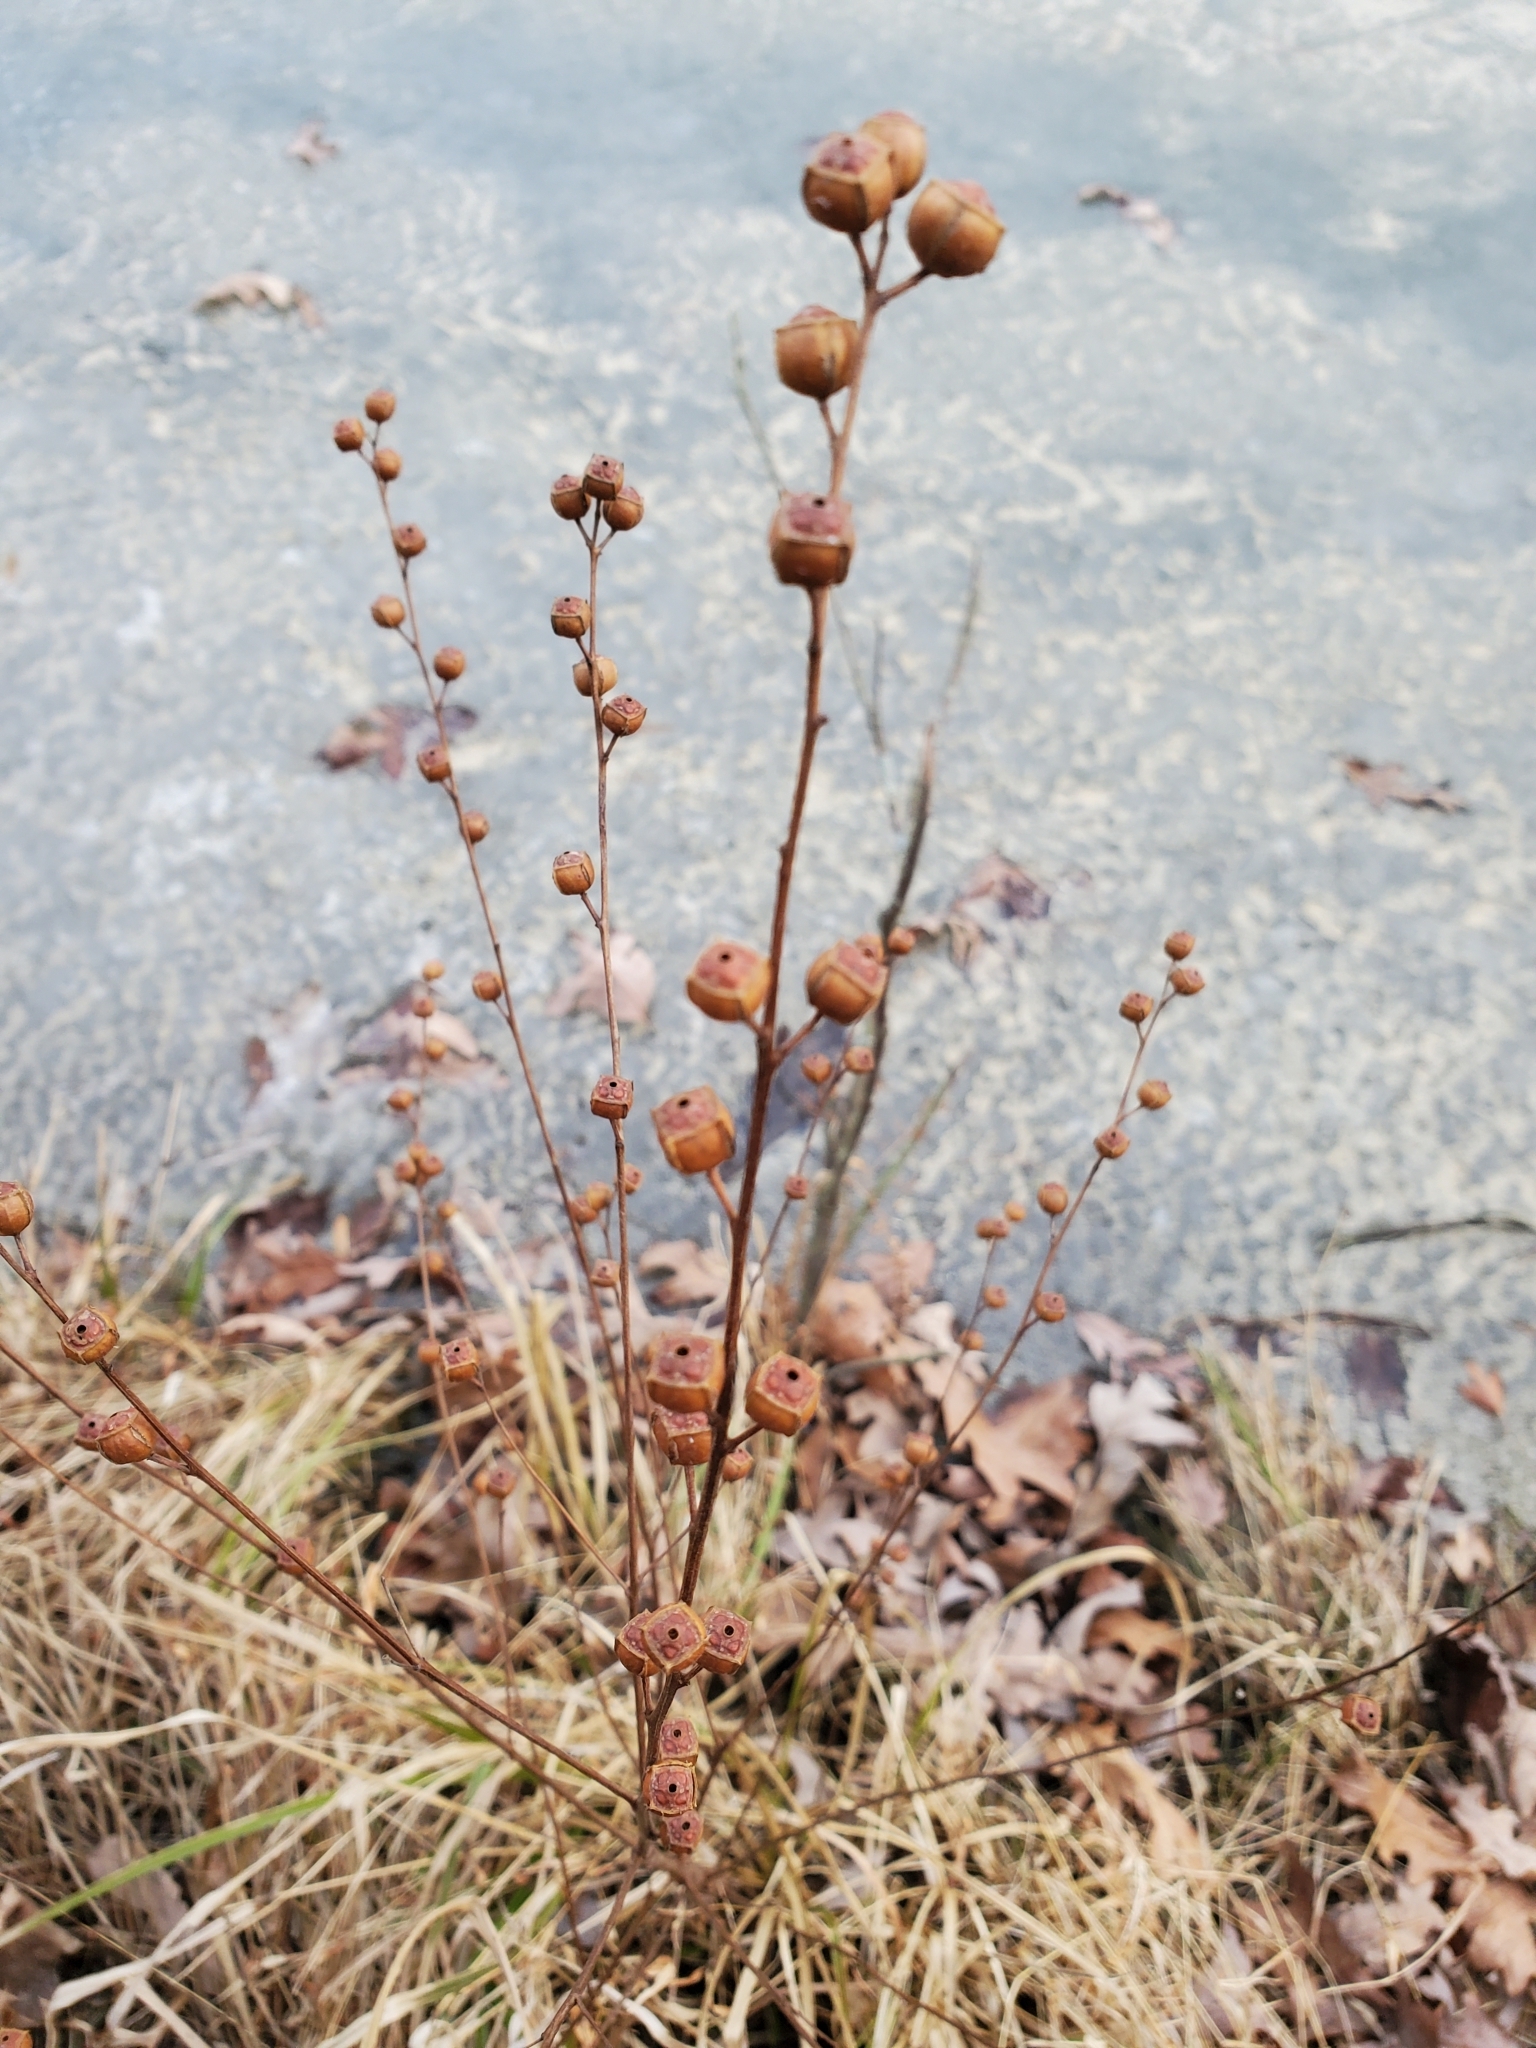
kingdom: Plantae
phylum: Tracheophyta
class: Magnoliopsida
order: Myrtales
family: Onagraceae
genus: Ludwigia
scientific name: Ludwigia alternifolia
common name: Rattlebox
